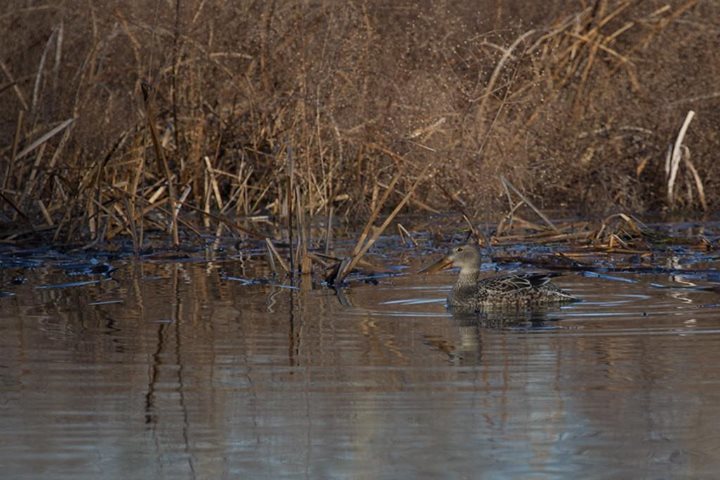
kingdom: Animalia
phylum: Chordata
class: Aves
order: Anseriformes
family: Anatidae
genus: Spatula
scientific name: Spatula clypeata
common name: Northern shoveler
